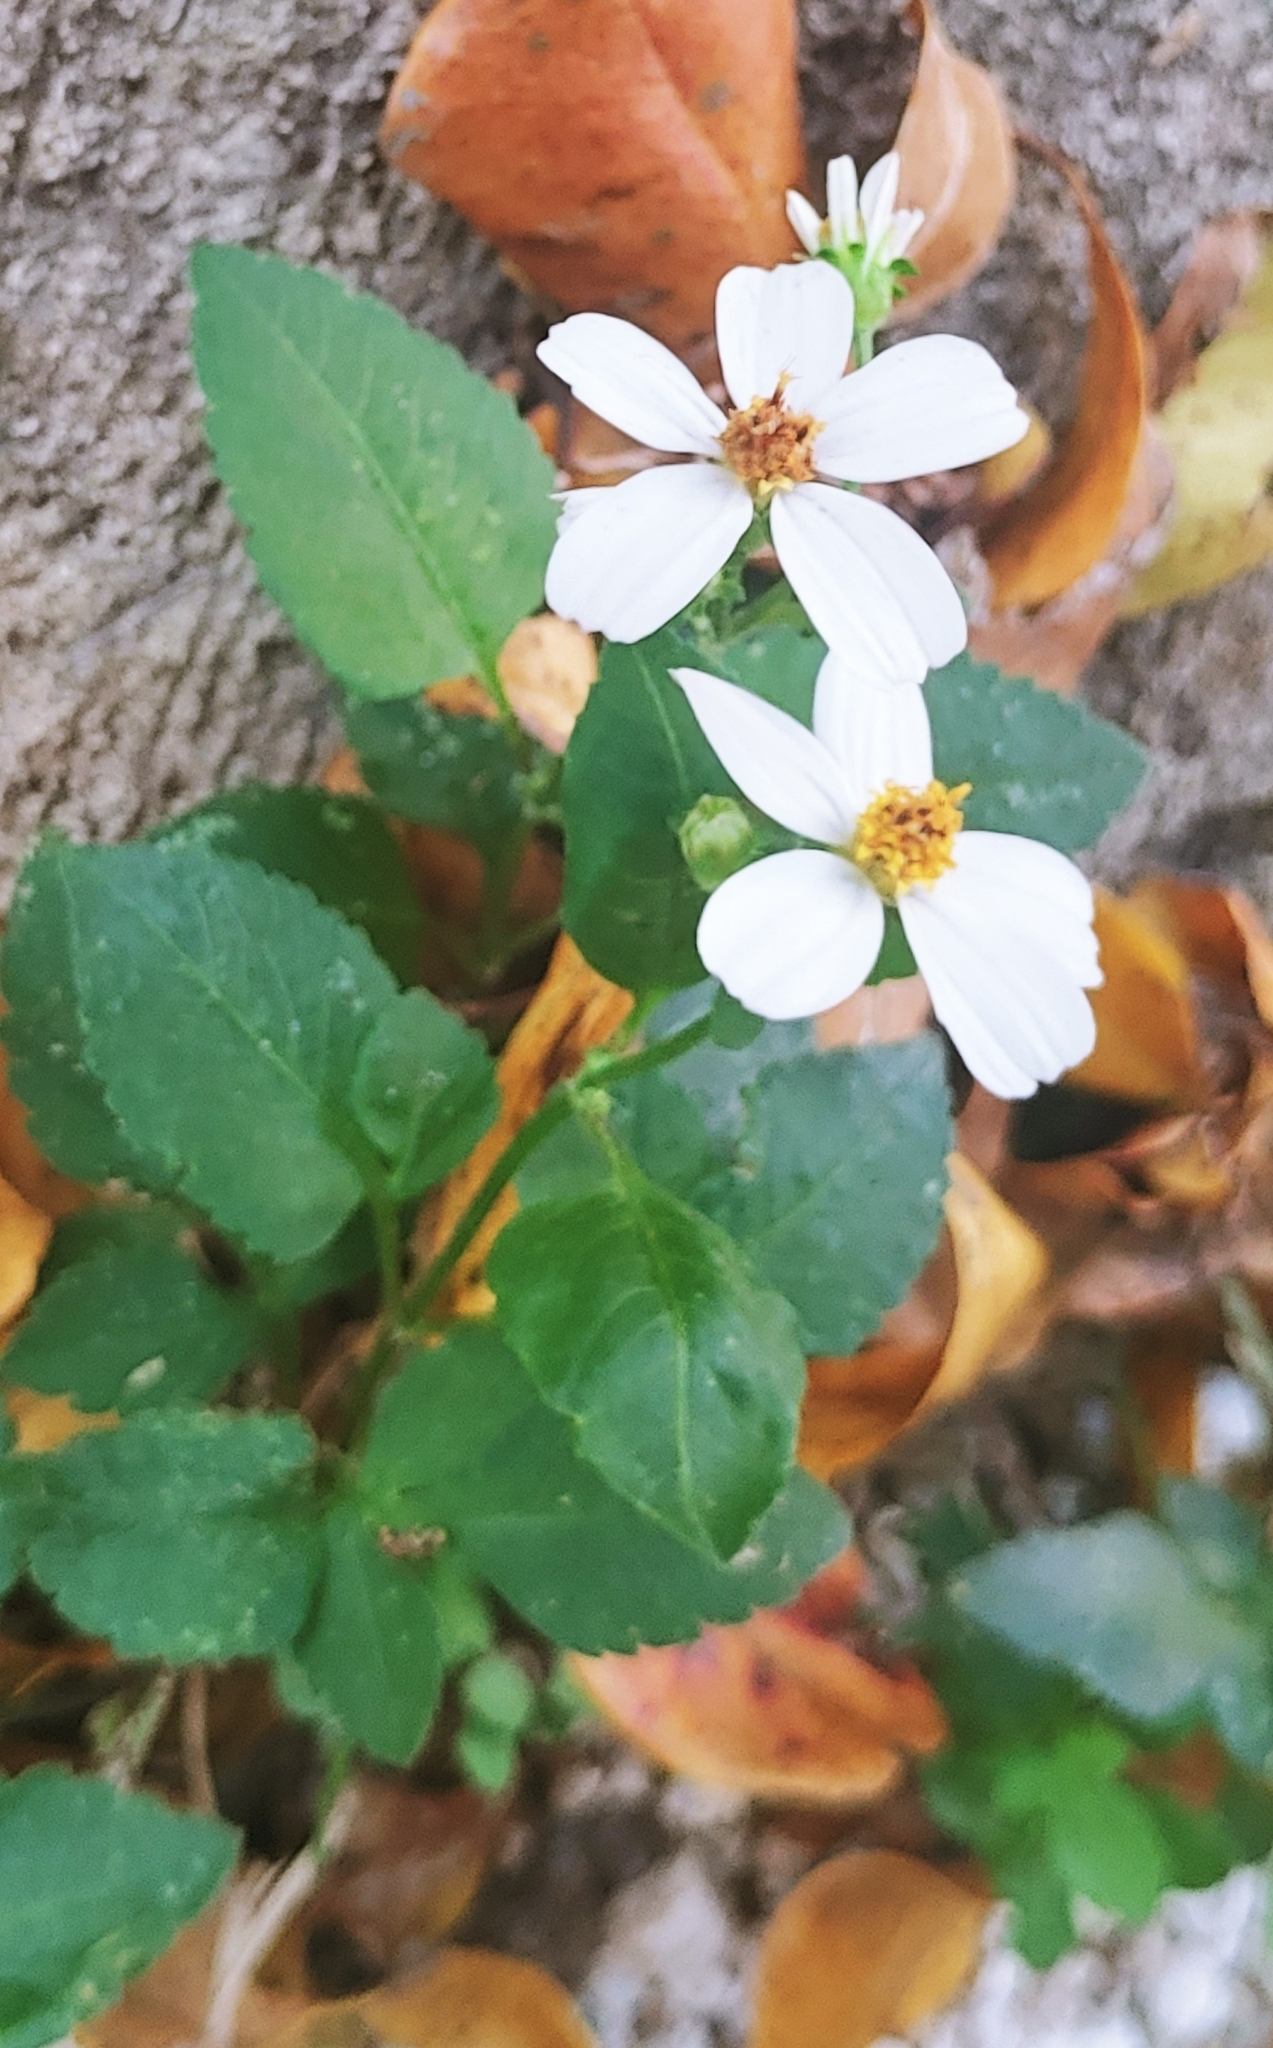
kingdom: Plantae
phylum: Tracheophyta
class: Magnoliopsida
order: Asterales
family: Asteraceae
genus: Bidens
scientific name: Bidens alba
